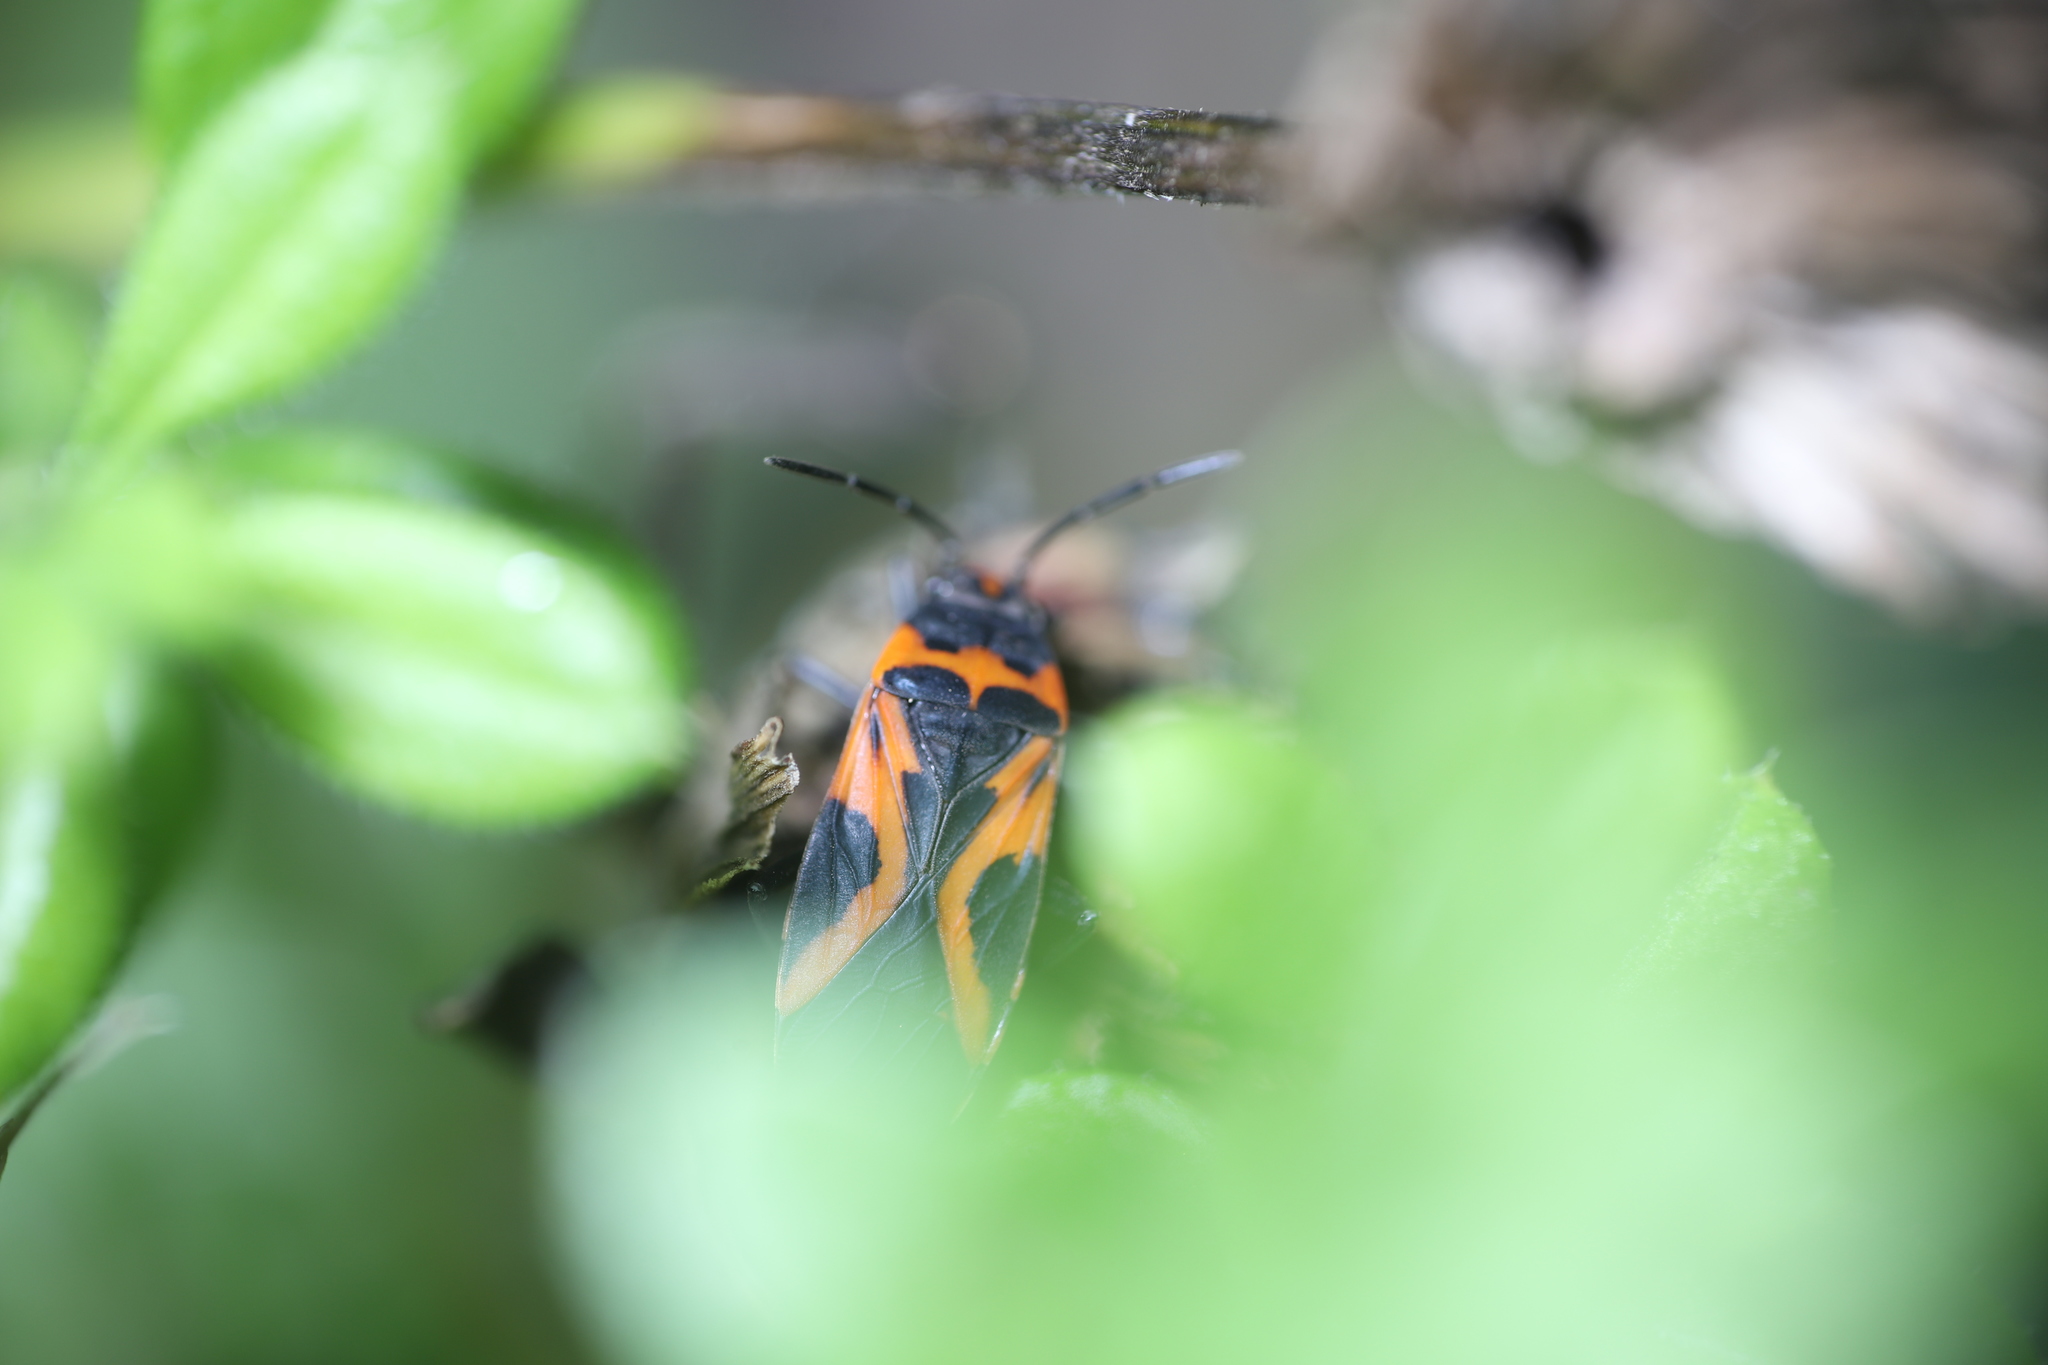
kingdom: Animalia
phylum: Arthropoda
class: Insecta
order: Hemiptera
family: Lygaeidae
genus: Lygaeus
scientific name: Lygaeus turcicus
